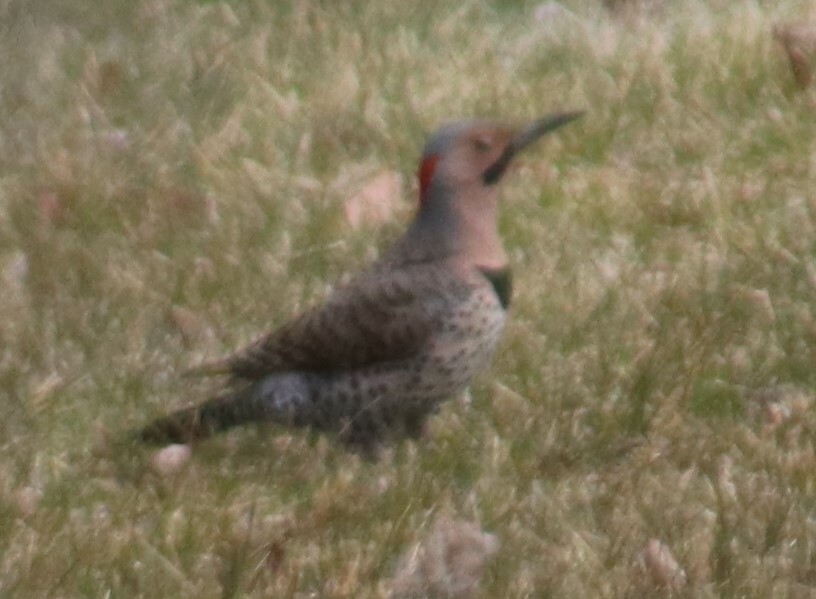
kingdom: Animalia
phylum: Chordata
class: Aves
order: Piciformes
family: Picidae
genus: Colaptes
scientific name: Colaptes auratus
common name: Northern flicker
